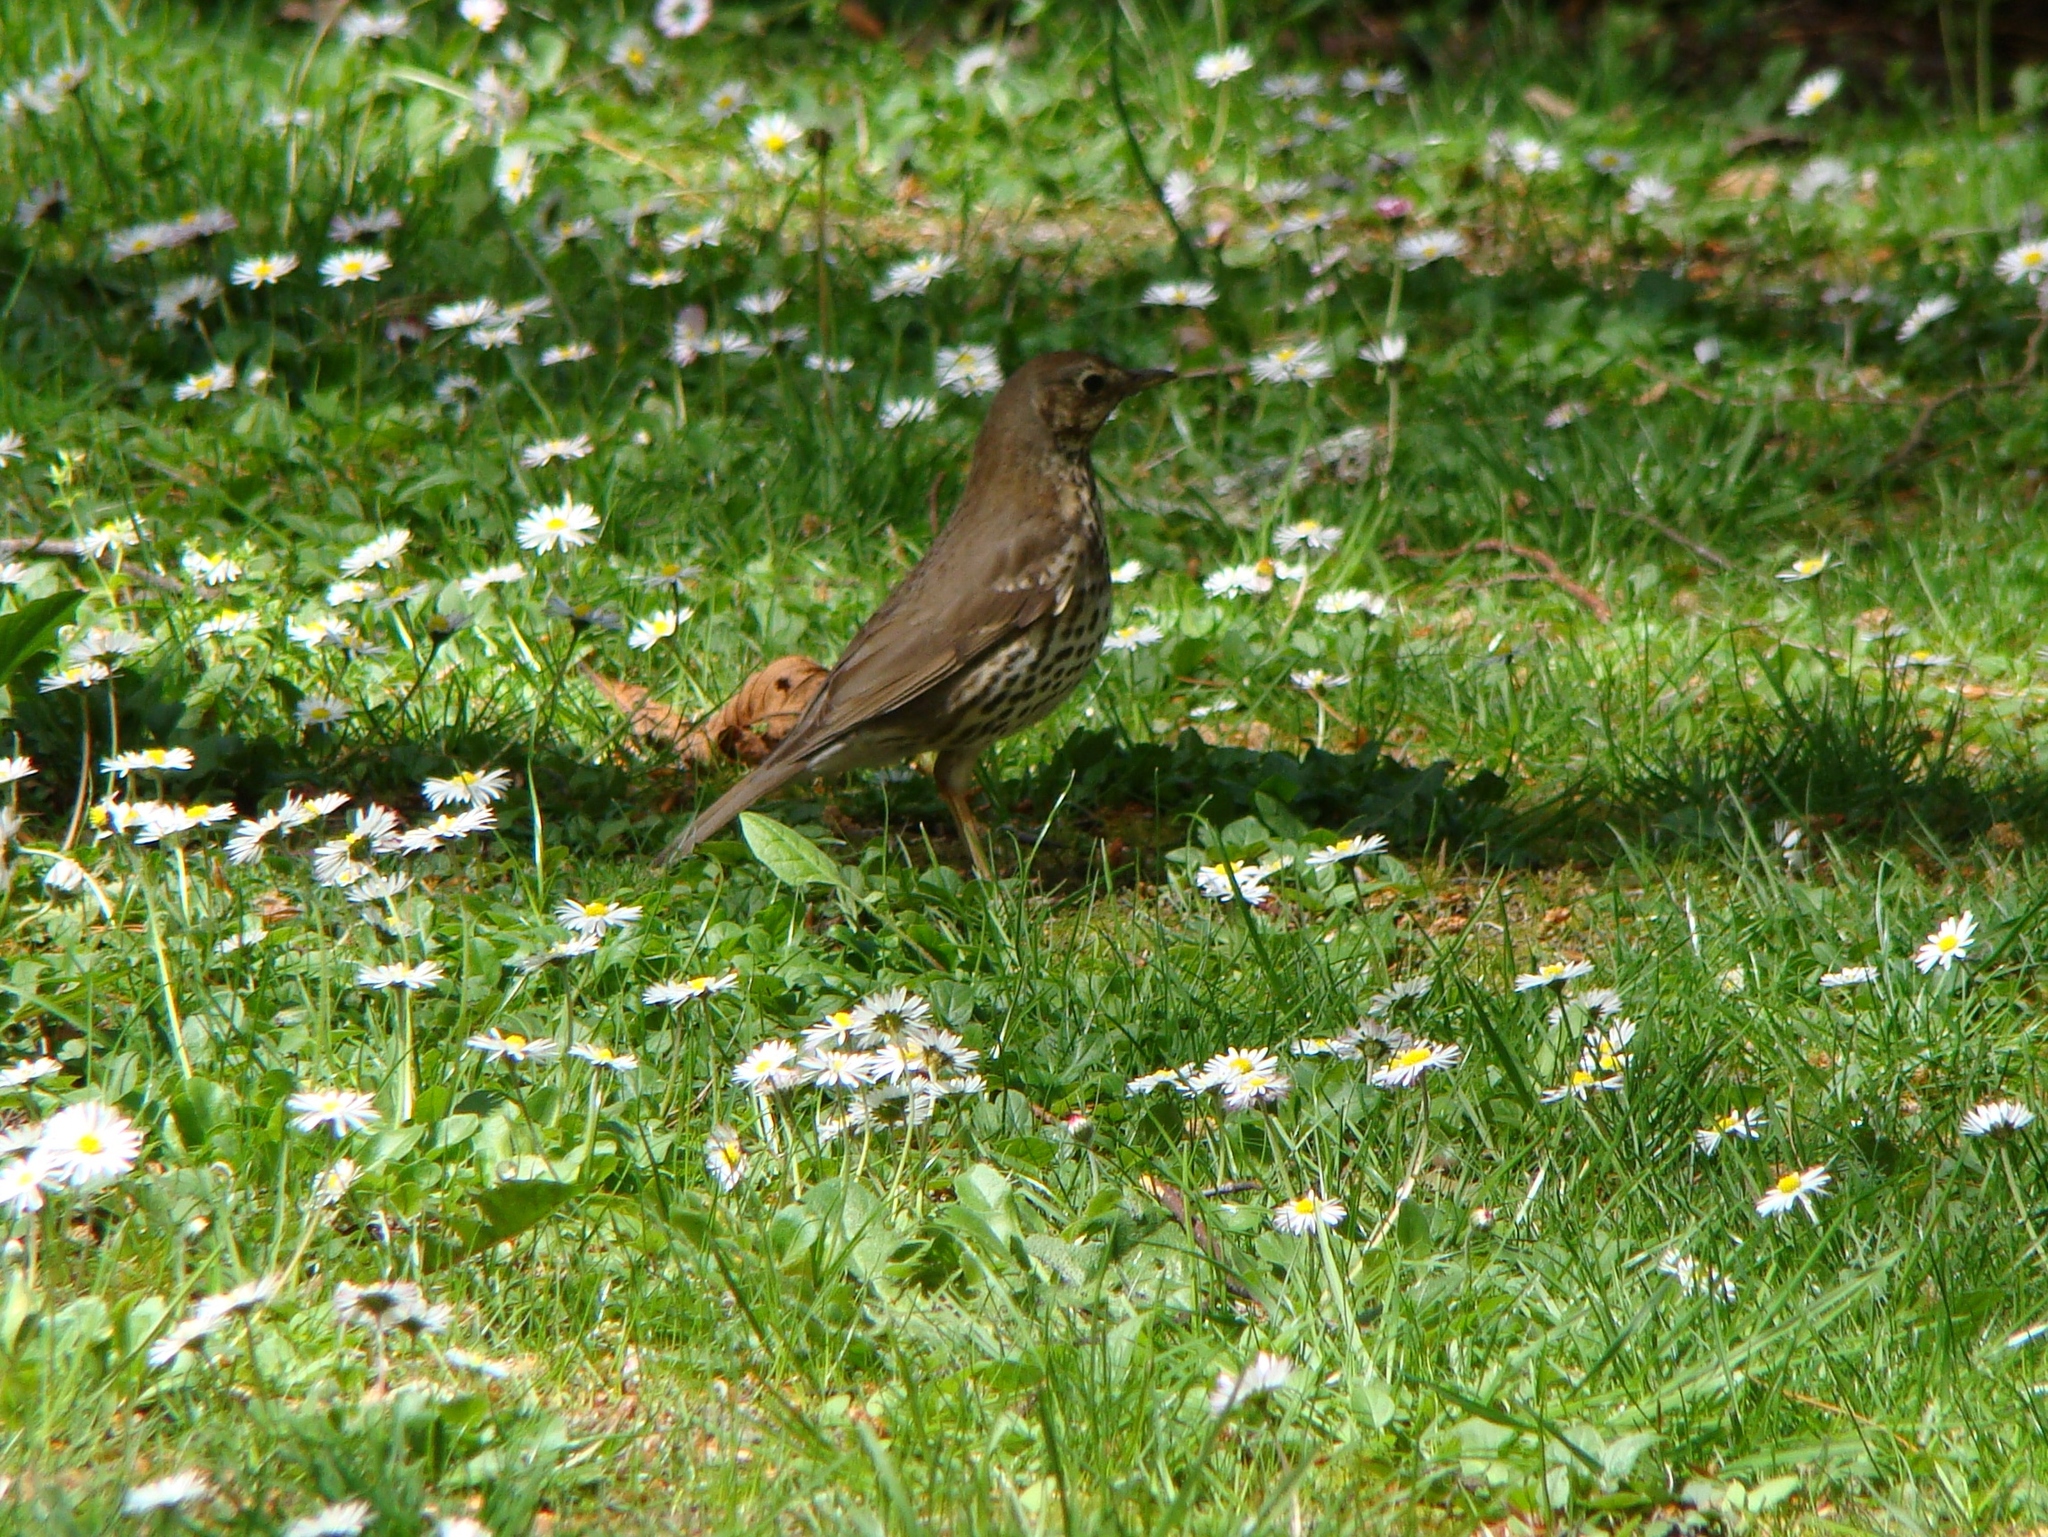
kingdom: Animalia
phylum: Chordata
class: Aves
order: Passeriformes
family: Turdidae
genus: Turdus
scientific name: Turdus philomelos
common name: Song thrush
